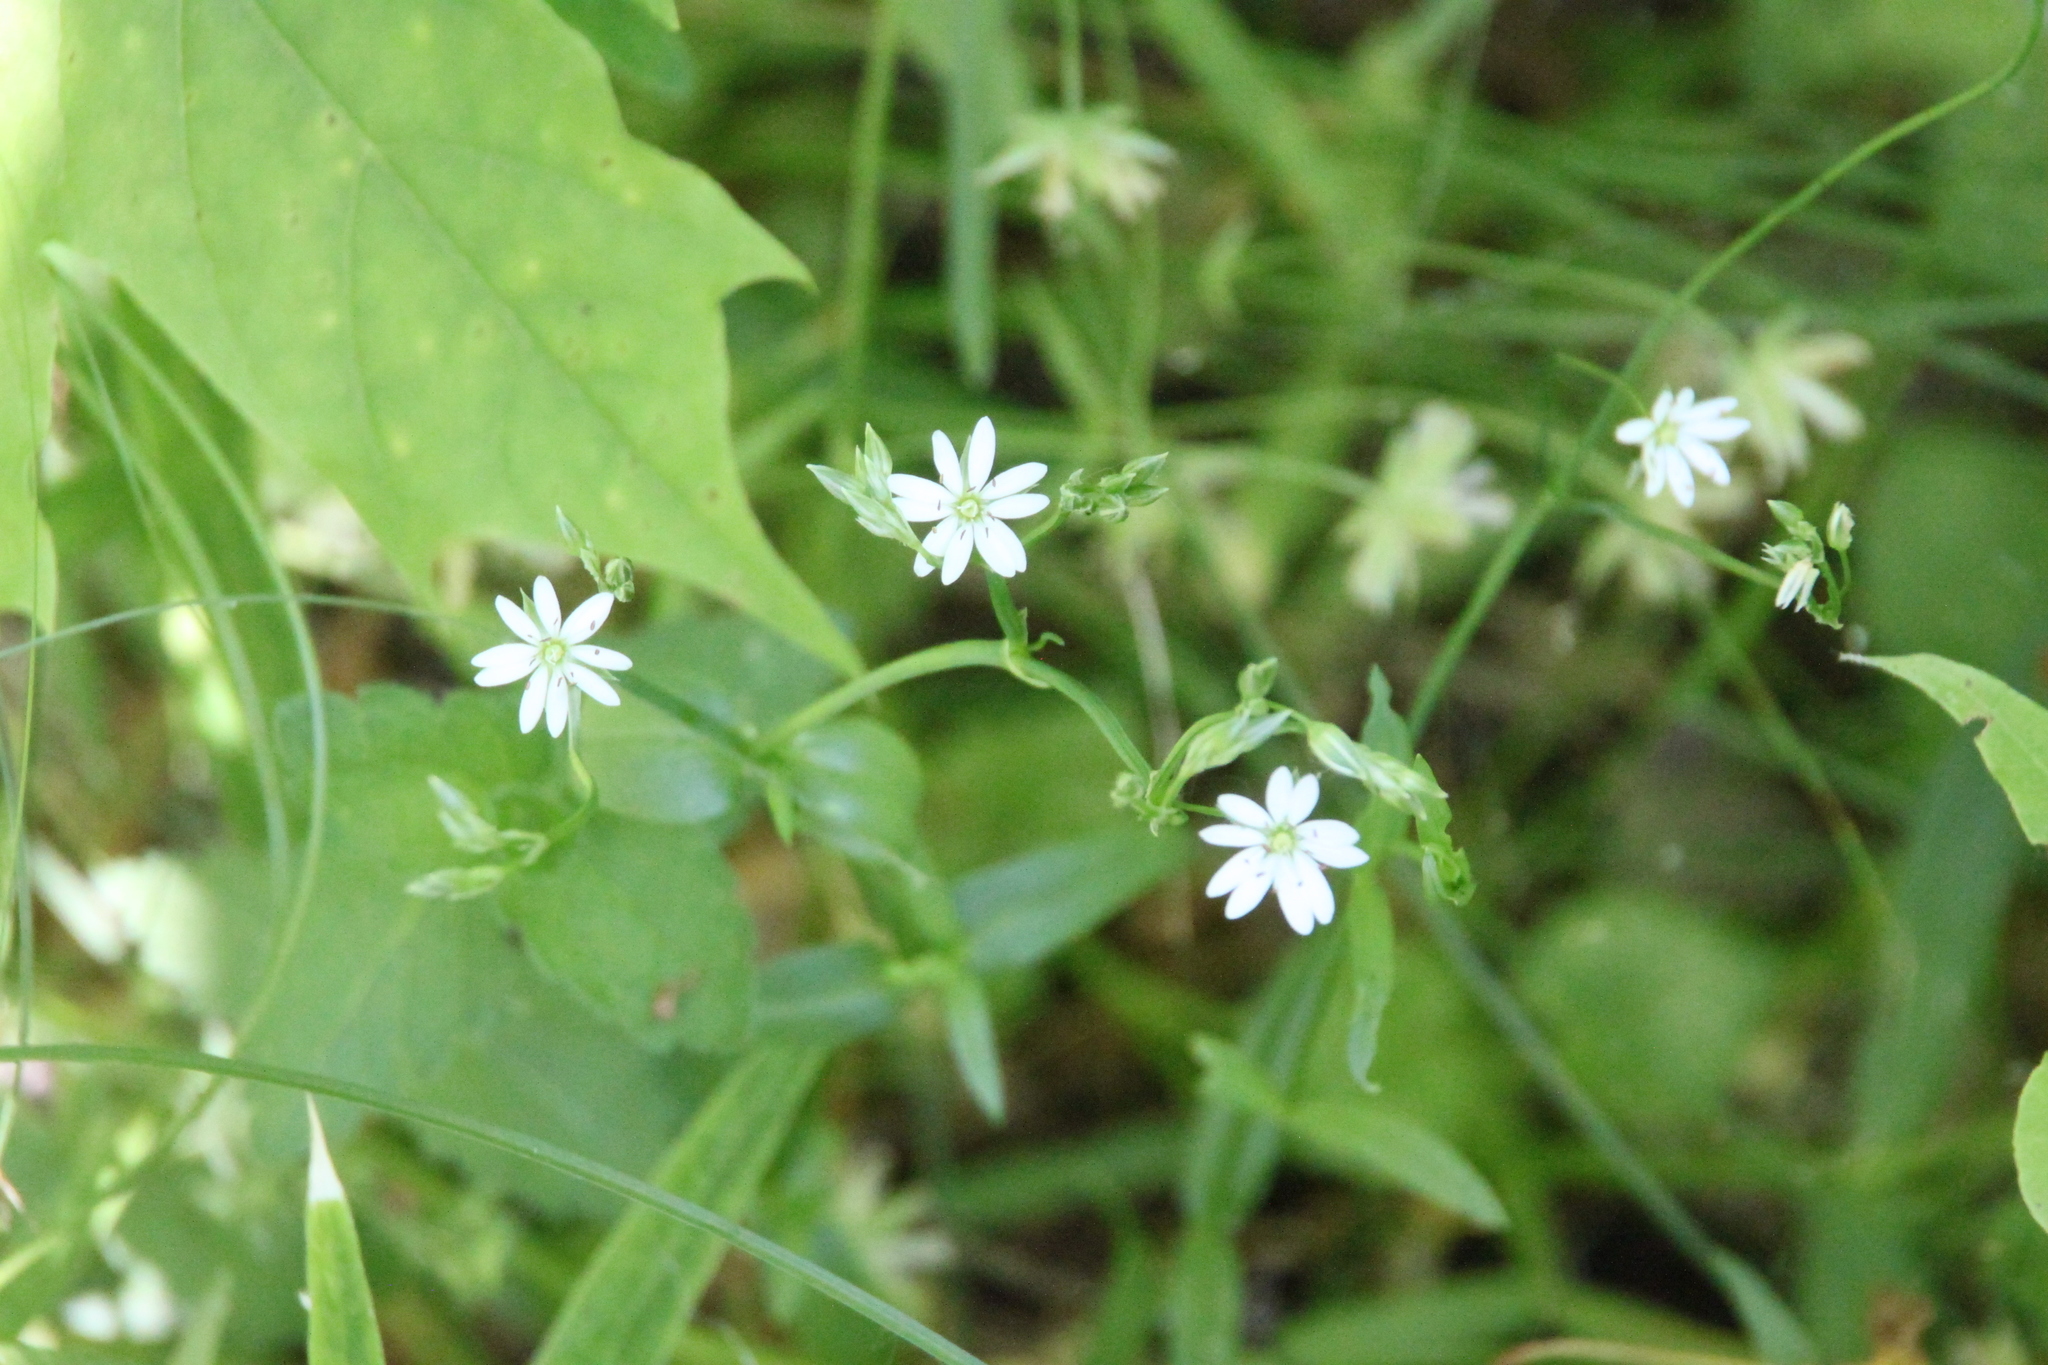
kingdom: Plantae
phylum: Tracheophyta
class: Magnoliopsida
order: Caryophyllales
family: Caryophyllaceae
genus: Stellaria
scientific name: Stellaria graminea
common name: Grass-like starwort
